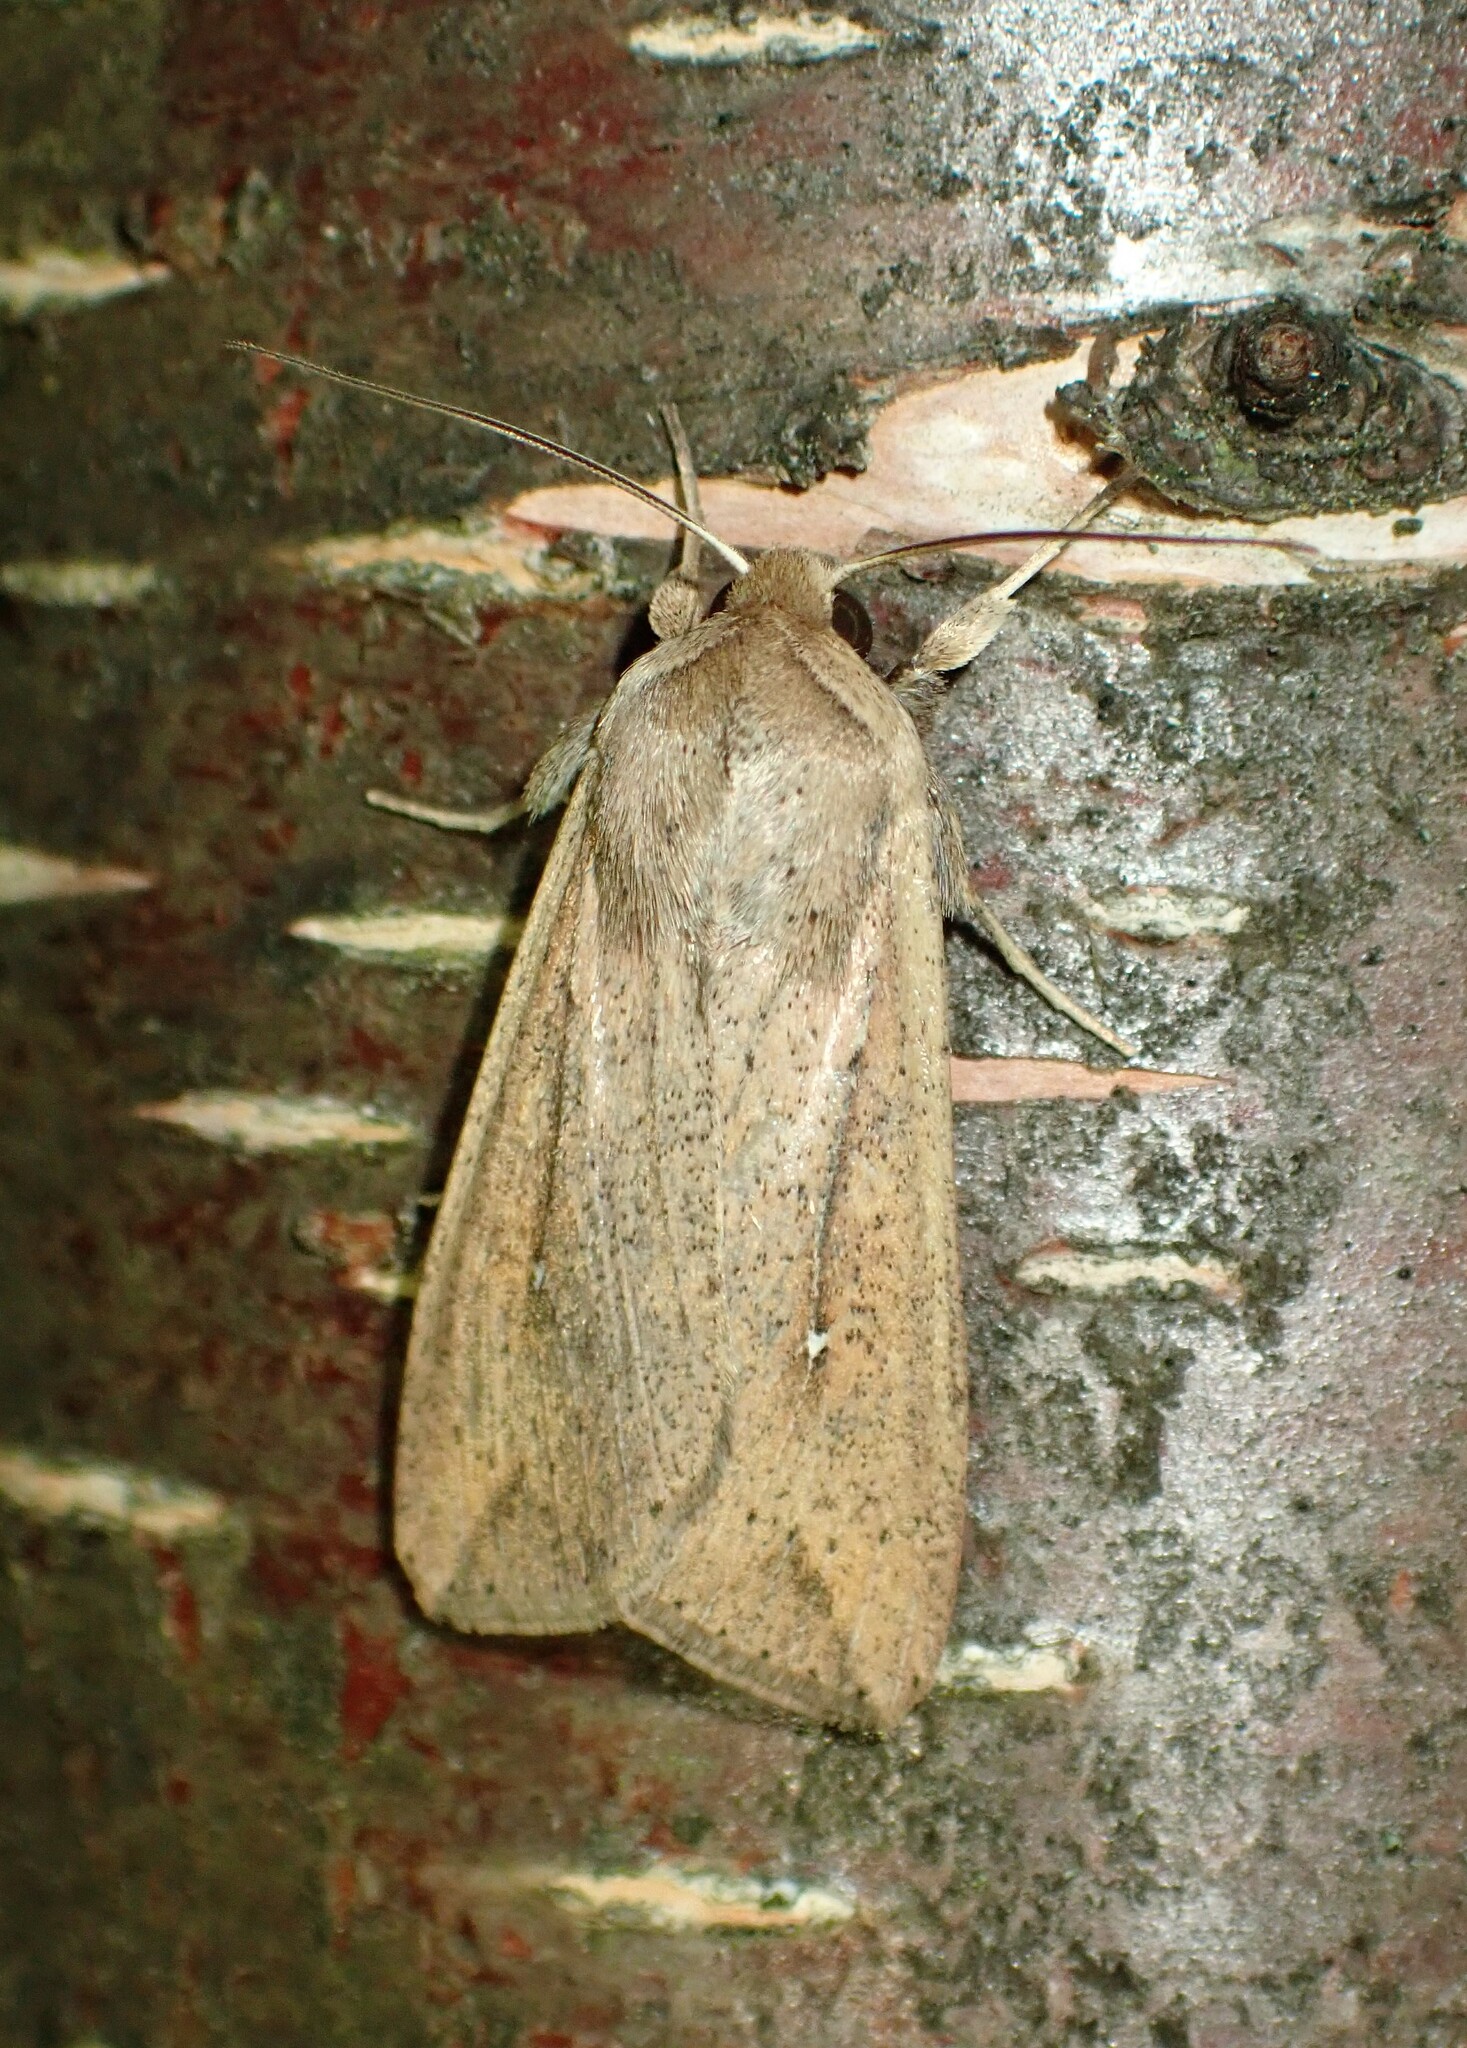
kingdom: Animalia
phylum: Arthropoda
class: Insecta
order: Lepidoptera
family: Noctuidae
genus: Mythimna
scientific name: Mythimna unipuncta
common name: White-speck
